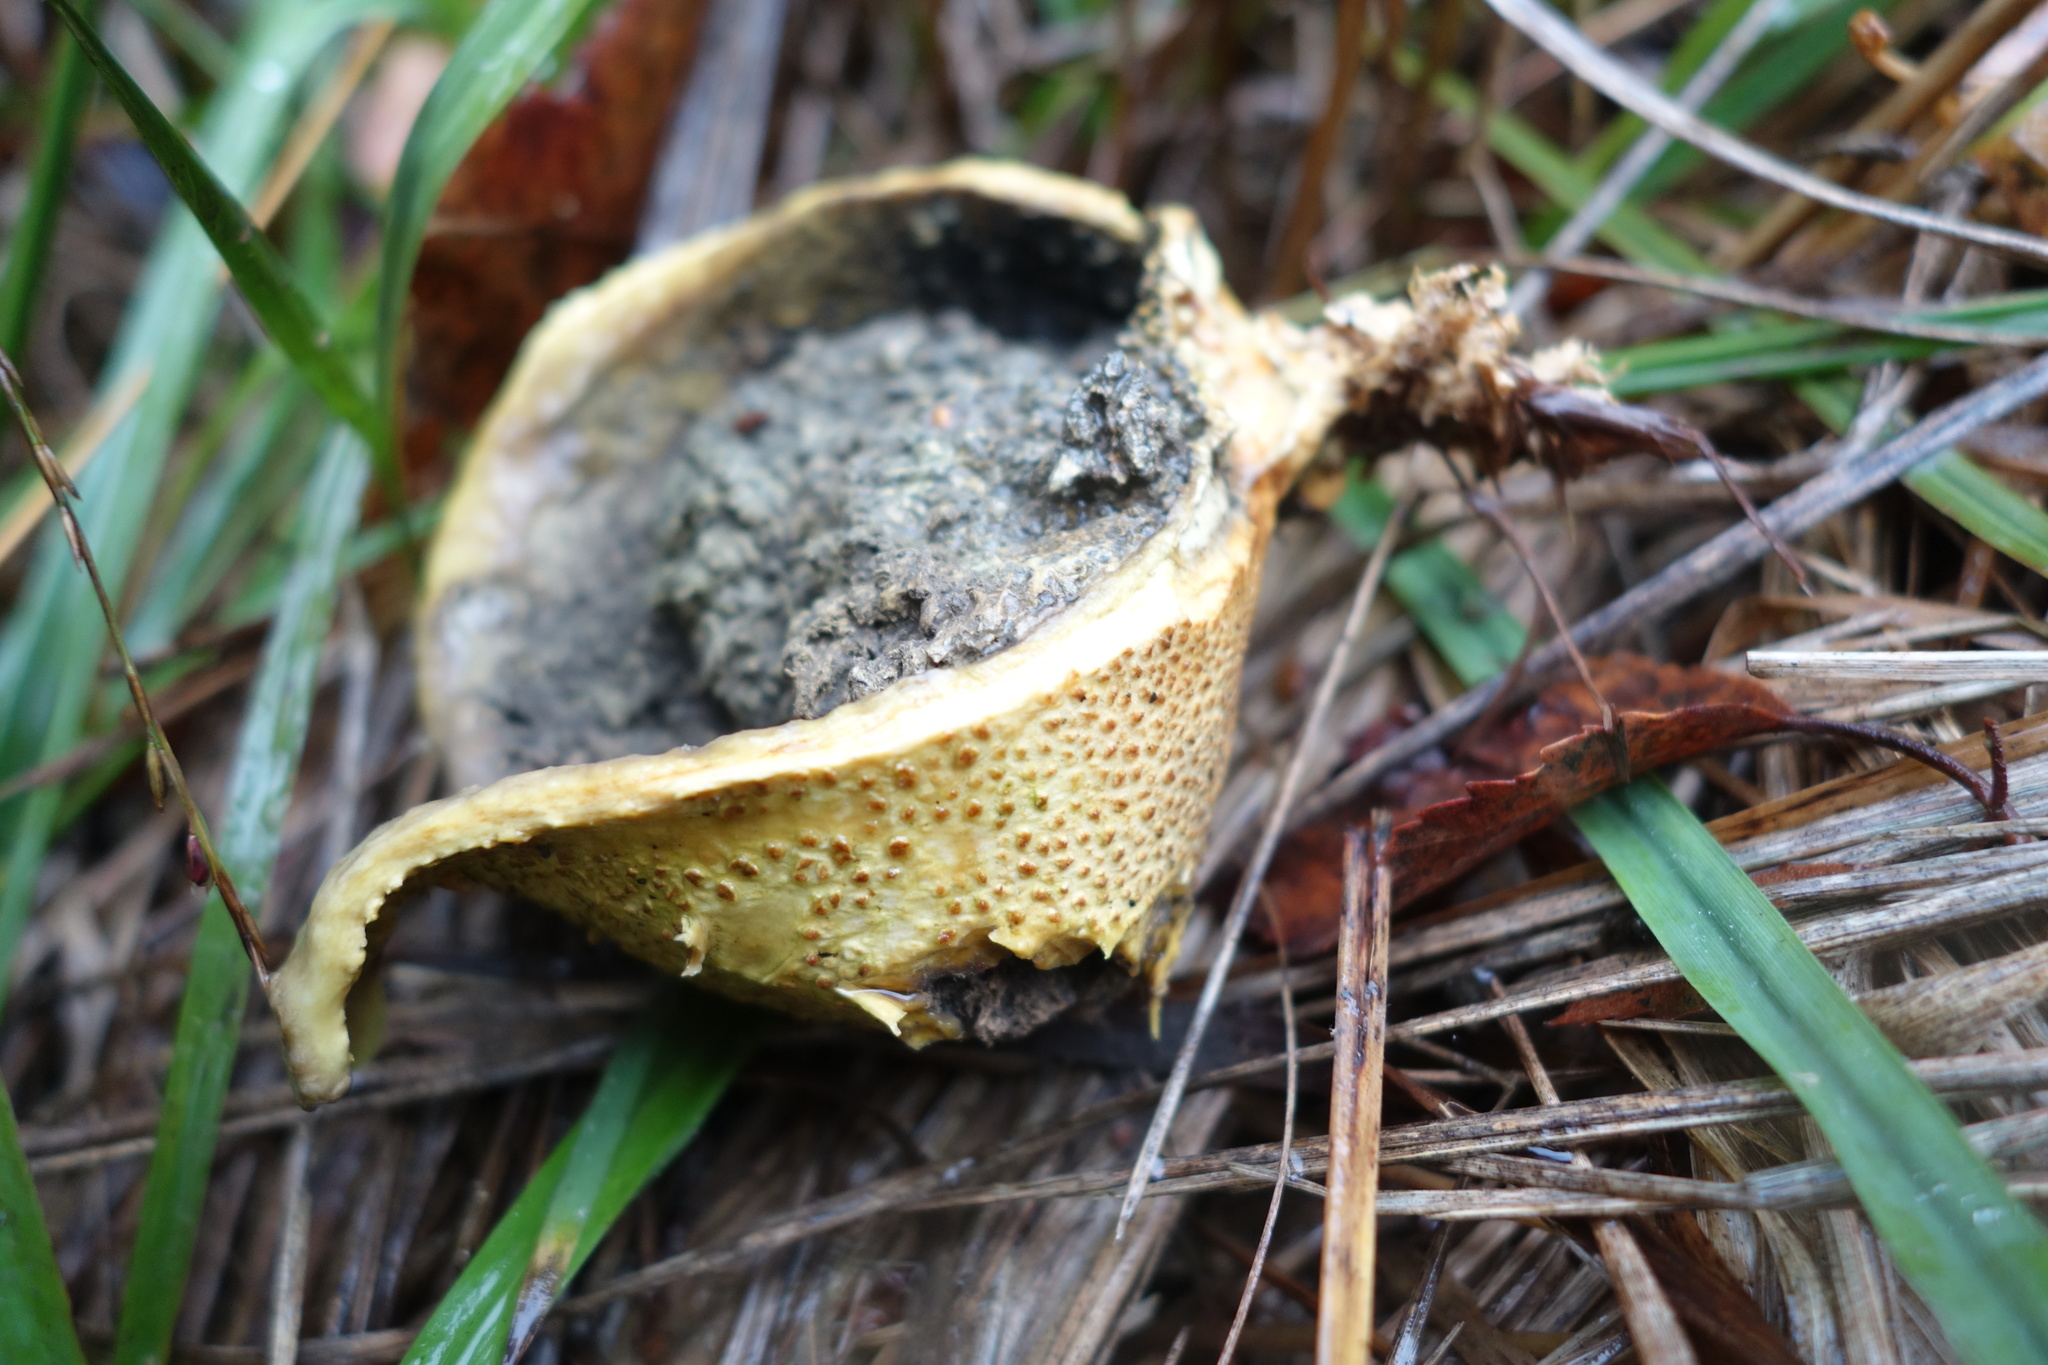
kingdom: Fungi
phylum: Basidiomycota
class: Agaricomycetes
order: Boletales
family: Sclerodermataceae
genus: Scleroderma
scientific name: Scleroderma citrinum
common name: Common earthball
